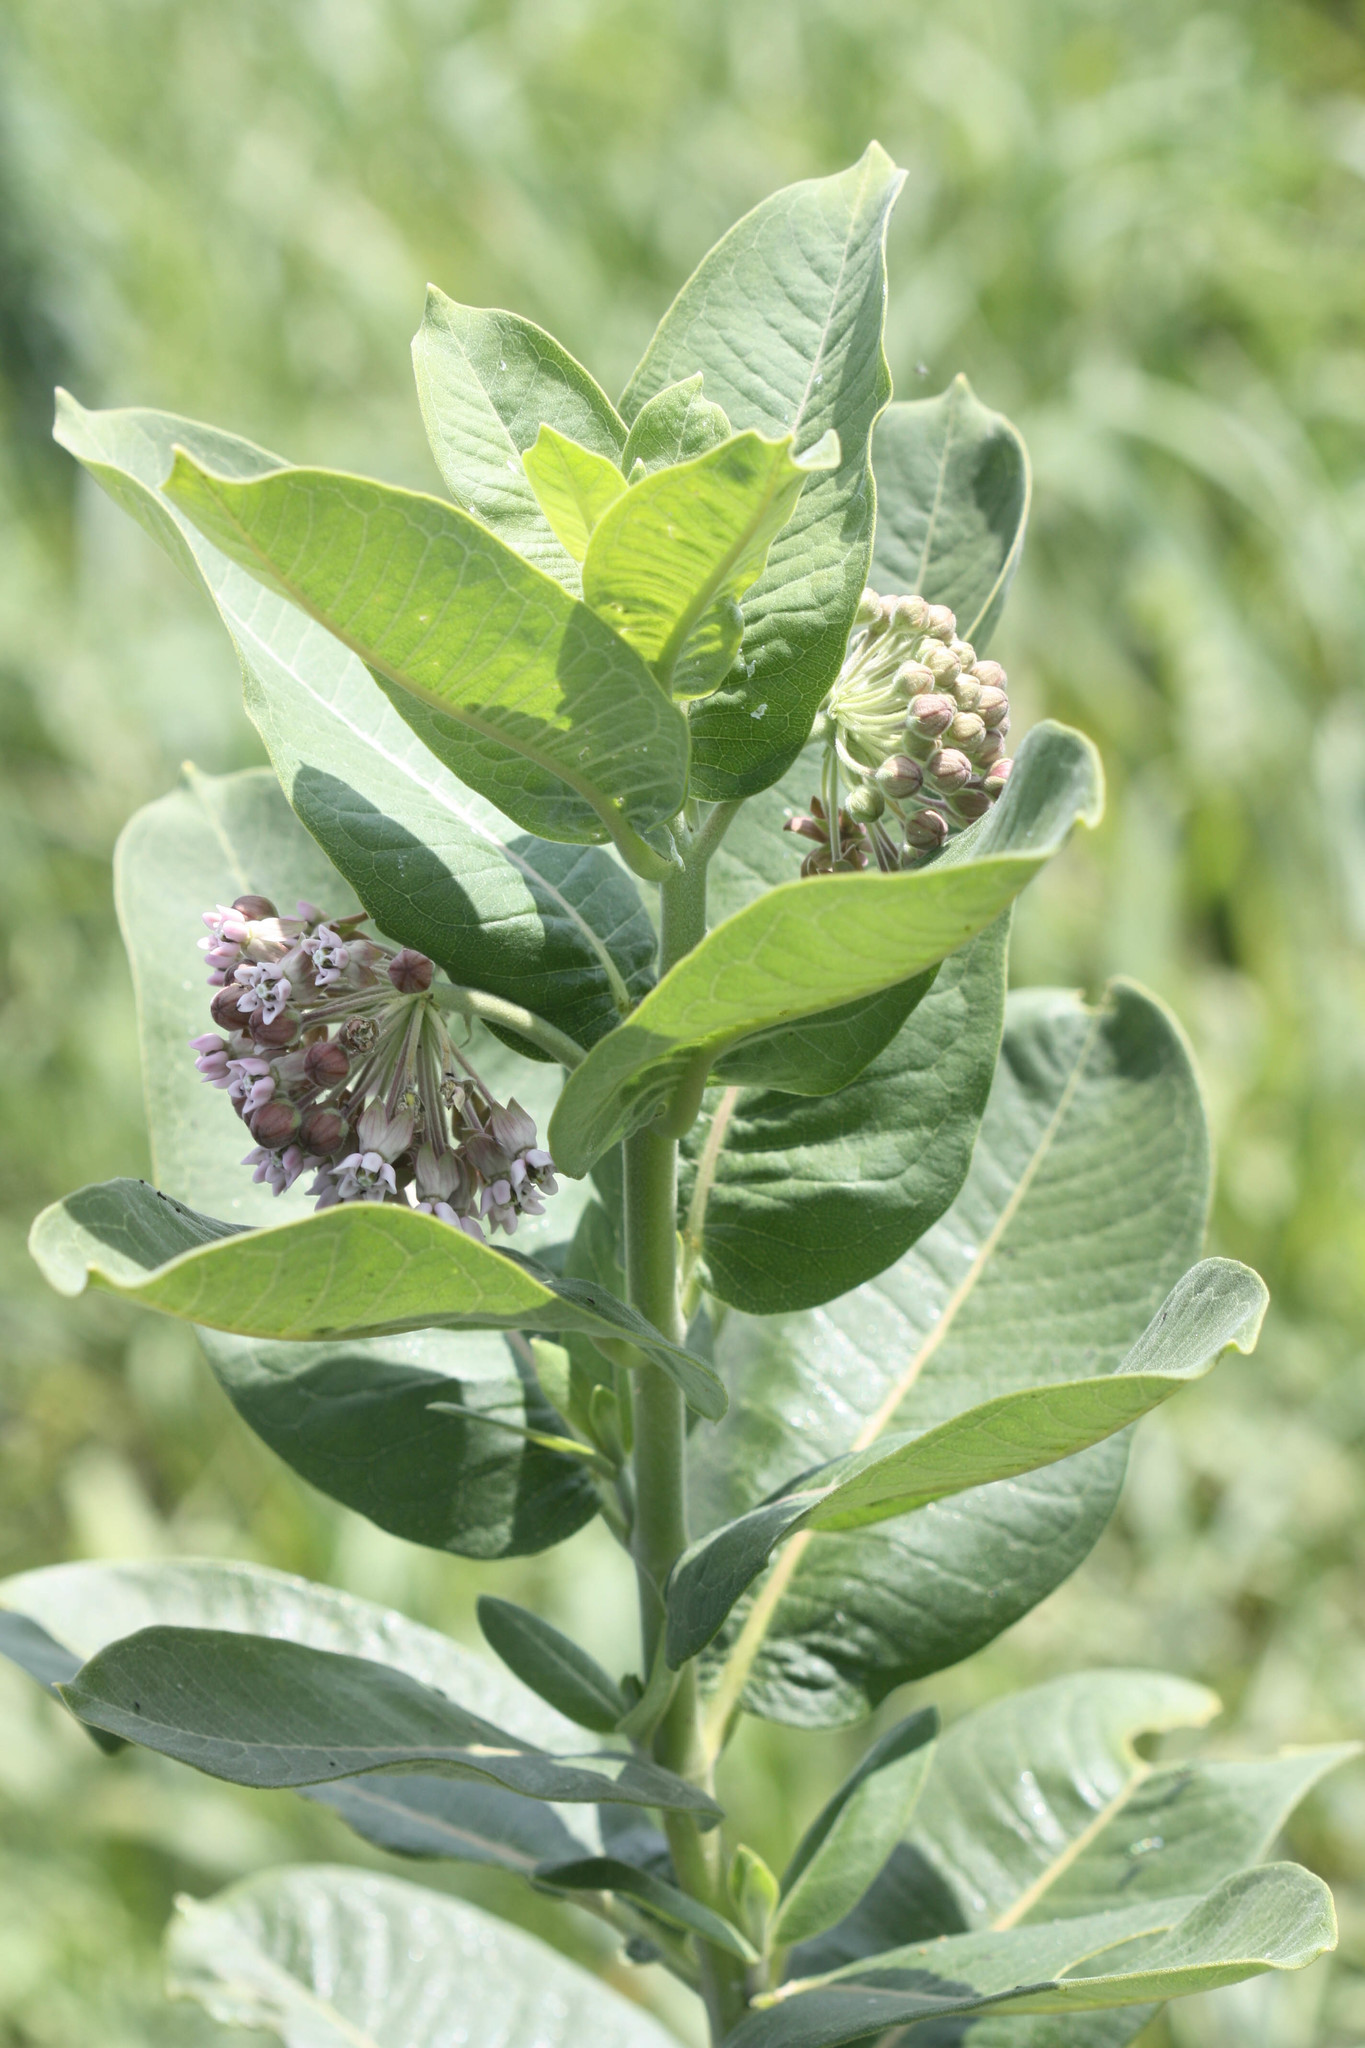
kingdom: Plantae
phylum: Tracheophyta
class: Magnoliopsida
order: Gentianales
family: Apocynaceae
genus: Asclepias
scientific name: Asclepias syriaca
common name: Common milkweed
